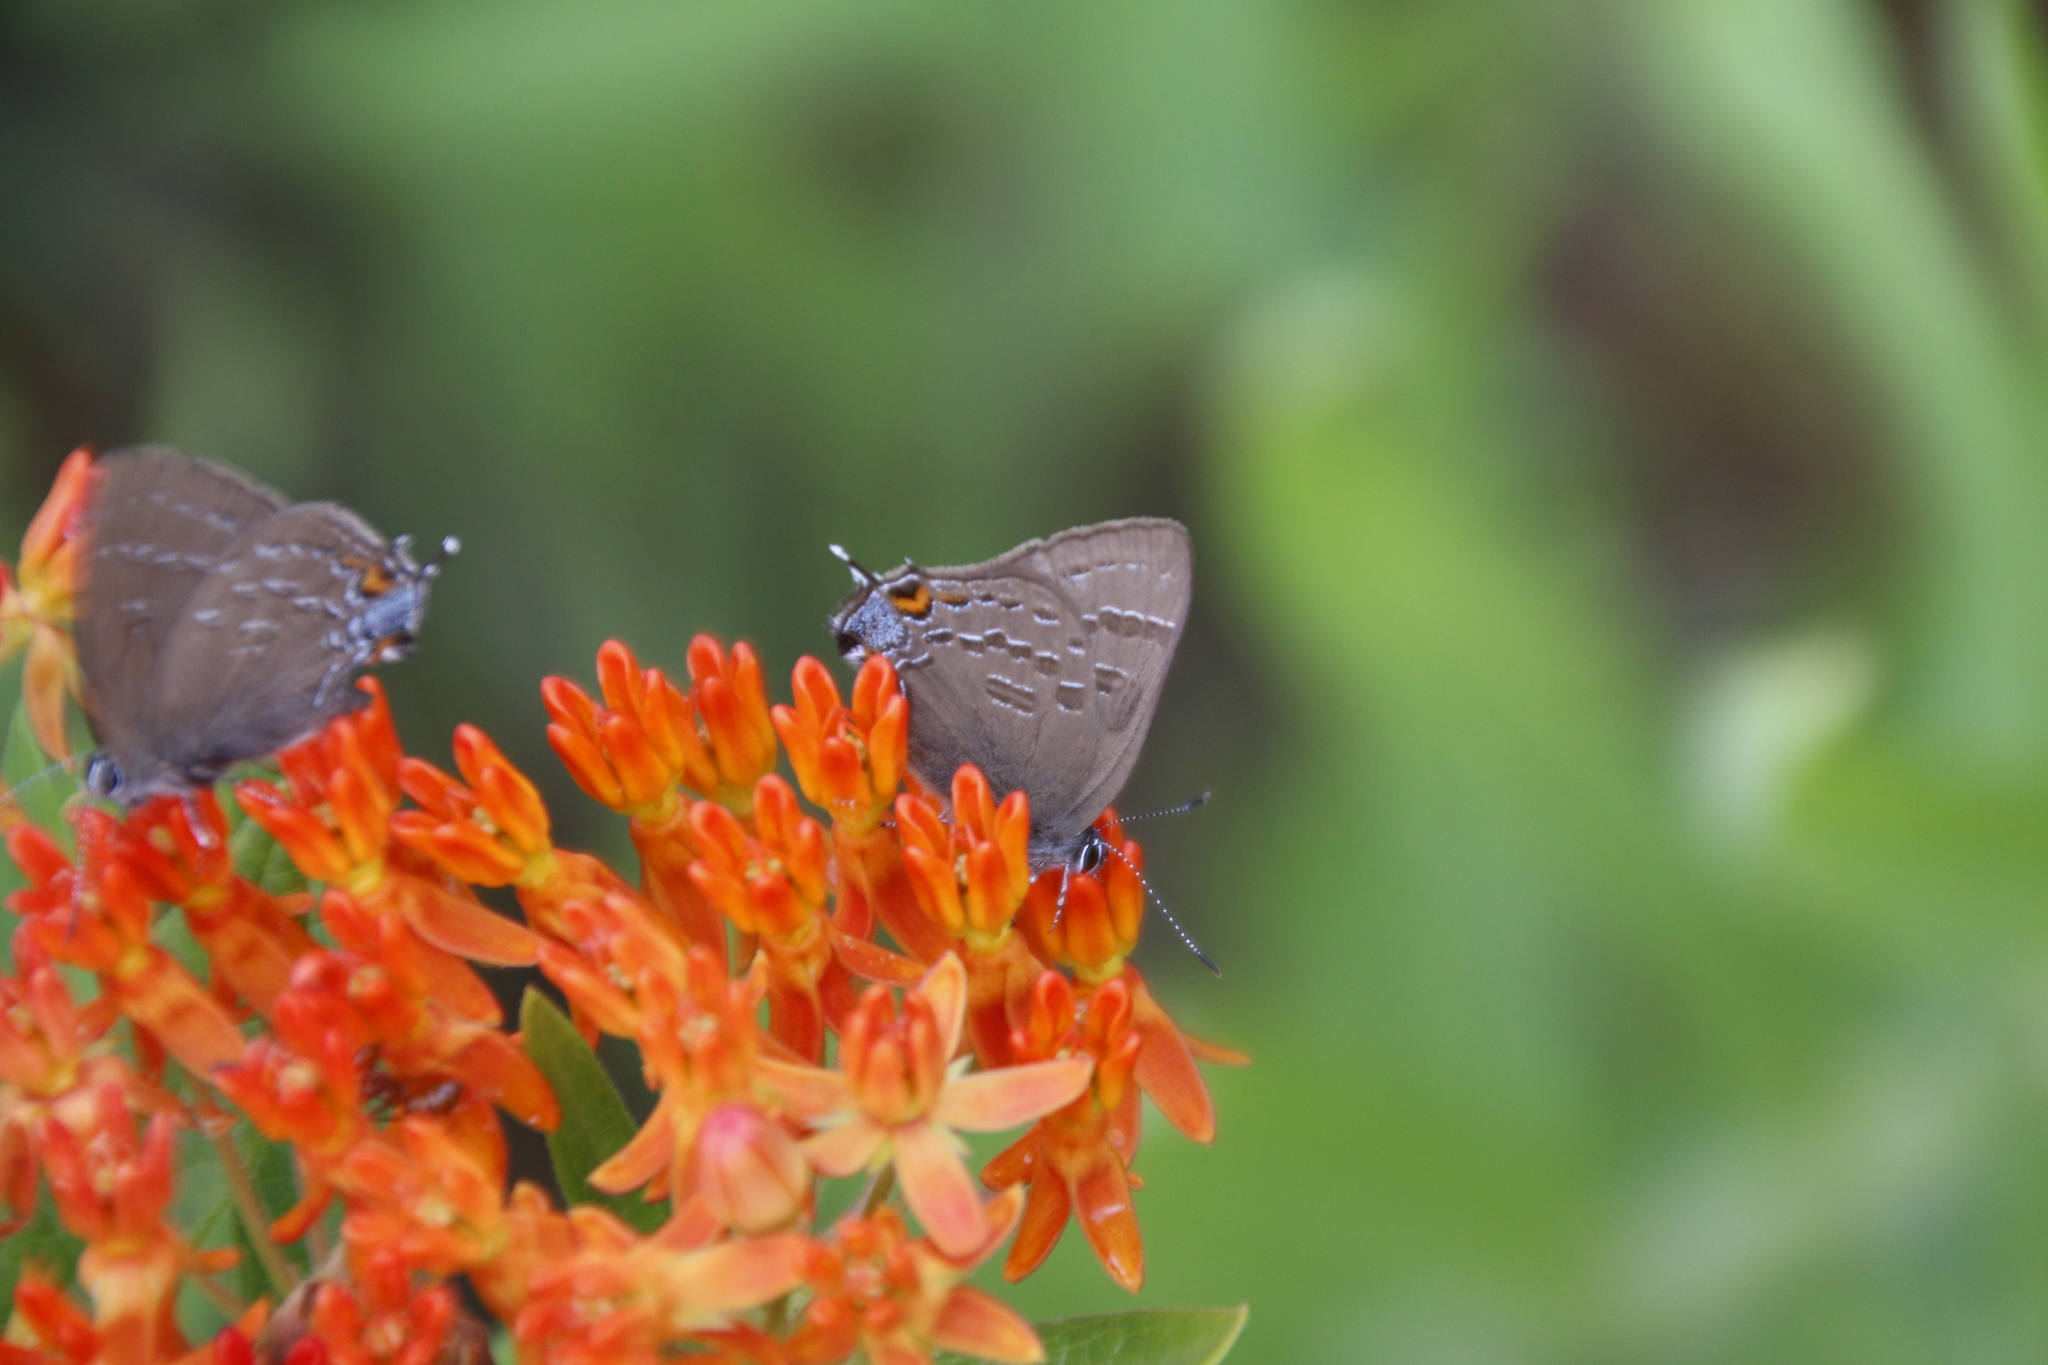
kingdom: Animalia
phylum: Arthropoda
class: Insecta
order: Lepidoptera
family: Lycaenidae
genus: Satyrium
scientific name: Satyrium calanus
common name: Banded hairstreak
